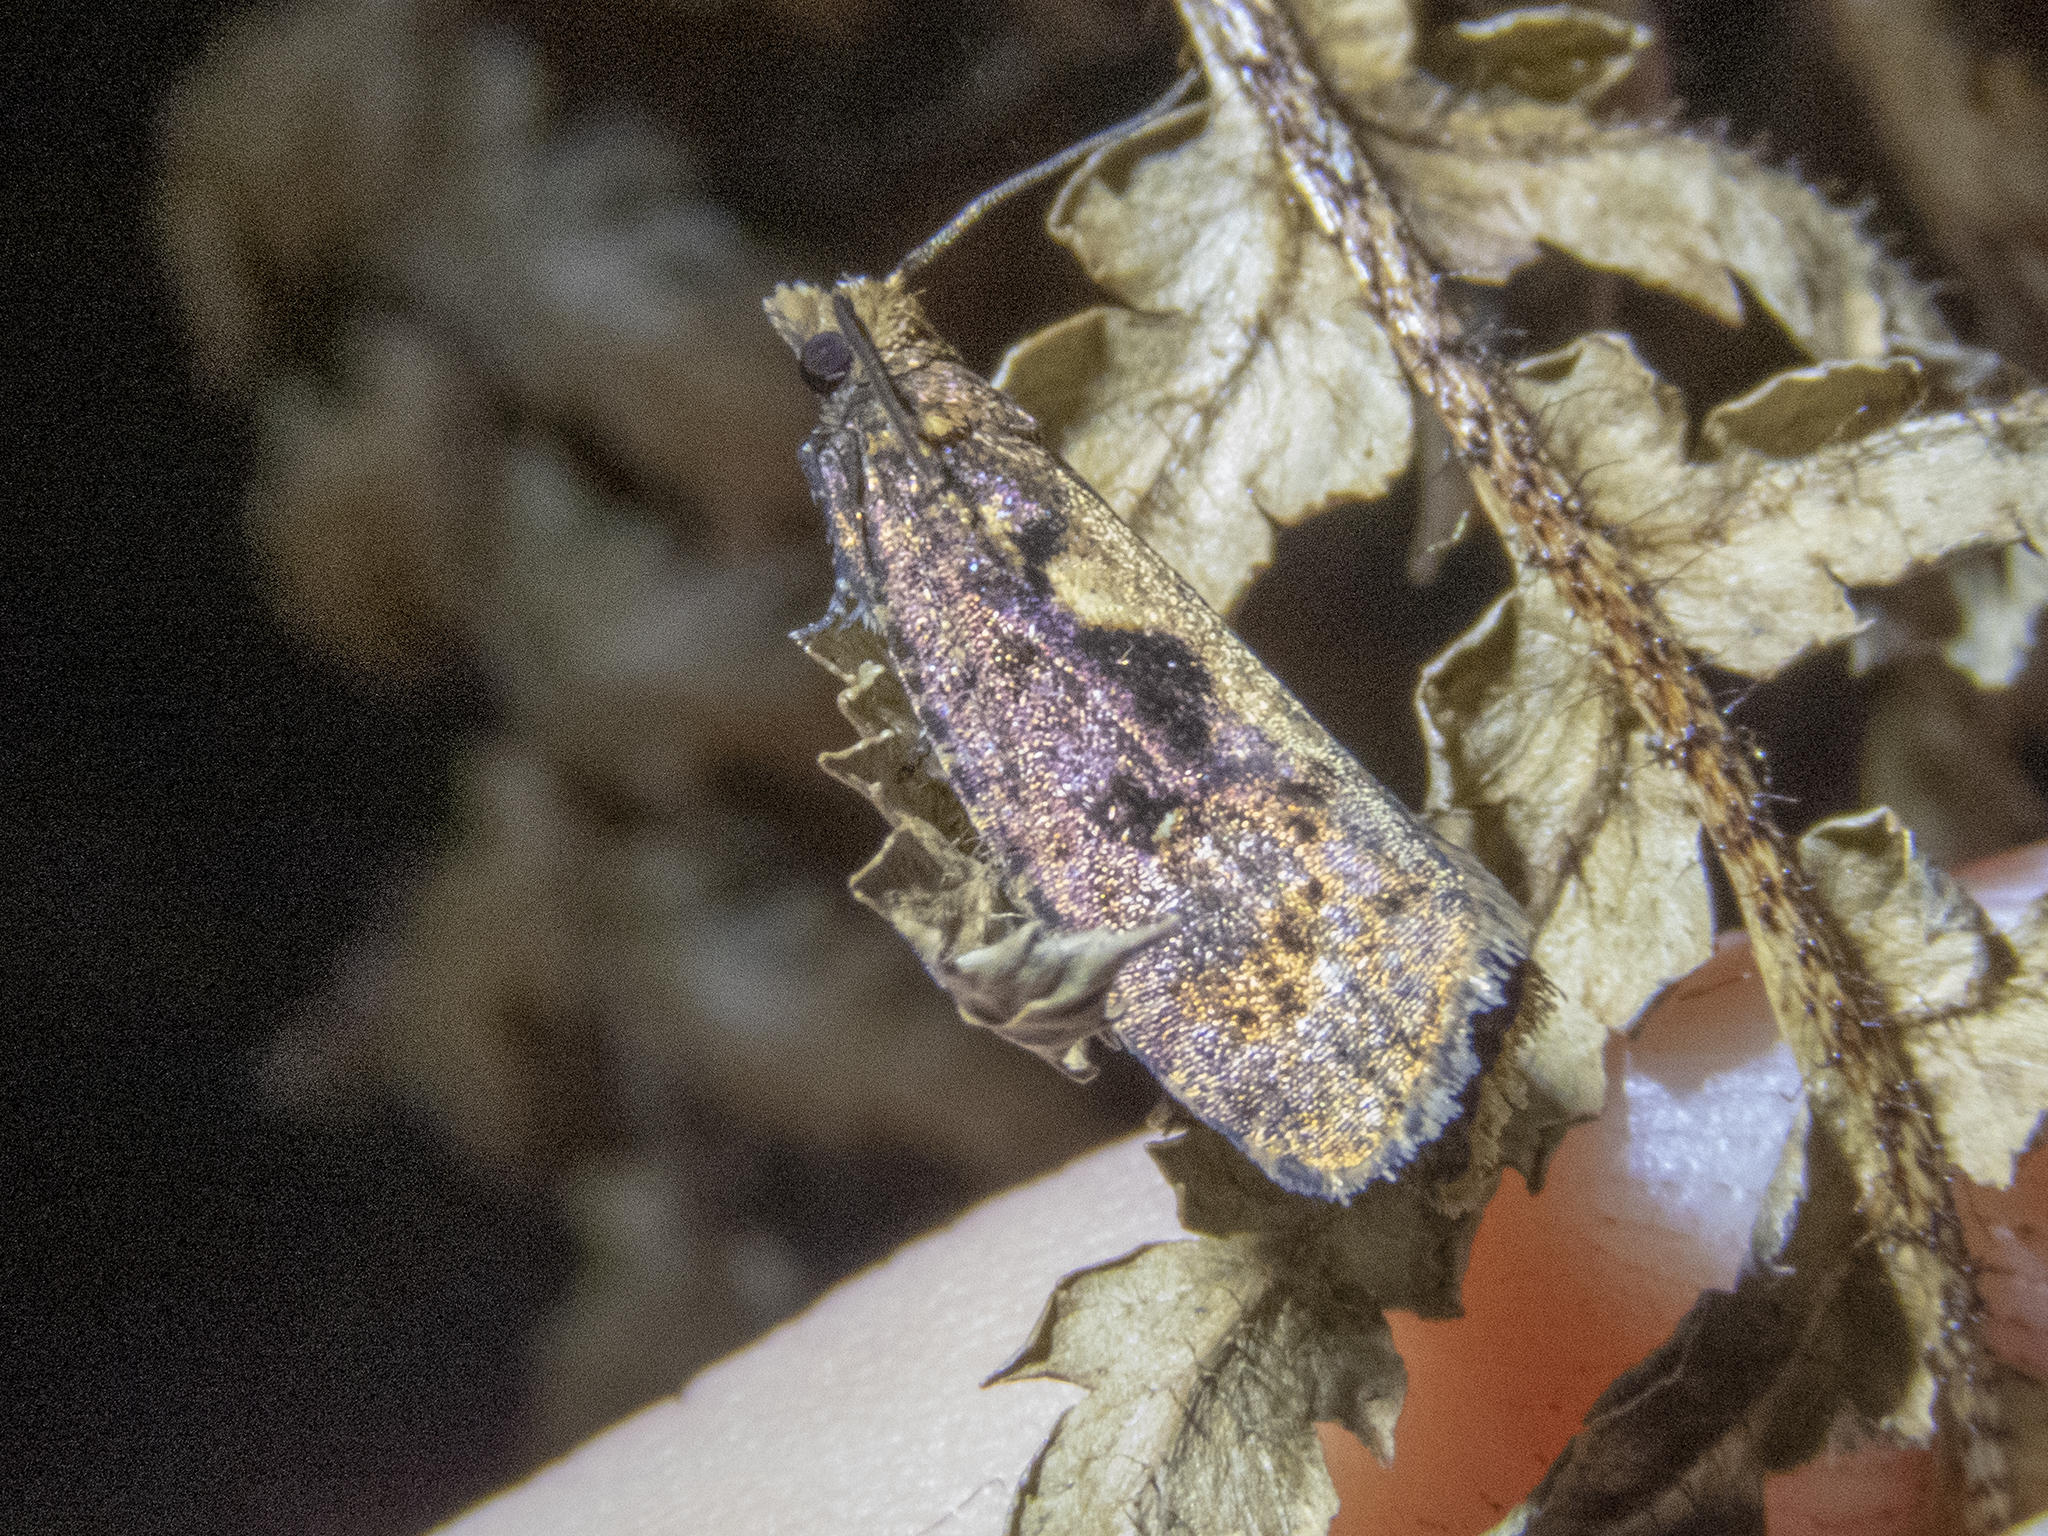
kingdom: Animalia
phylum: Arthropoda
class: Insecta
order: Lepidoptera
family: Tortricidae
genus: Cryptaspasma
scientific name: Cryptaspasma querula
